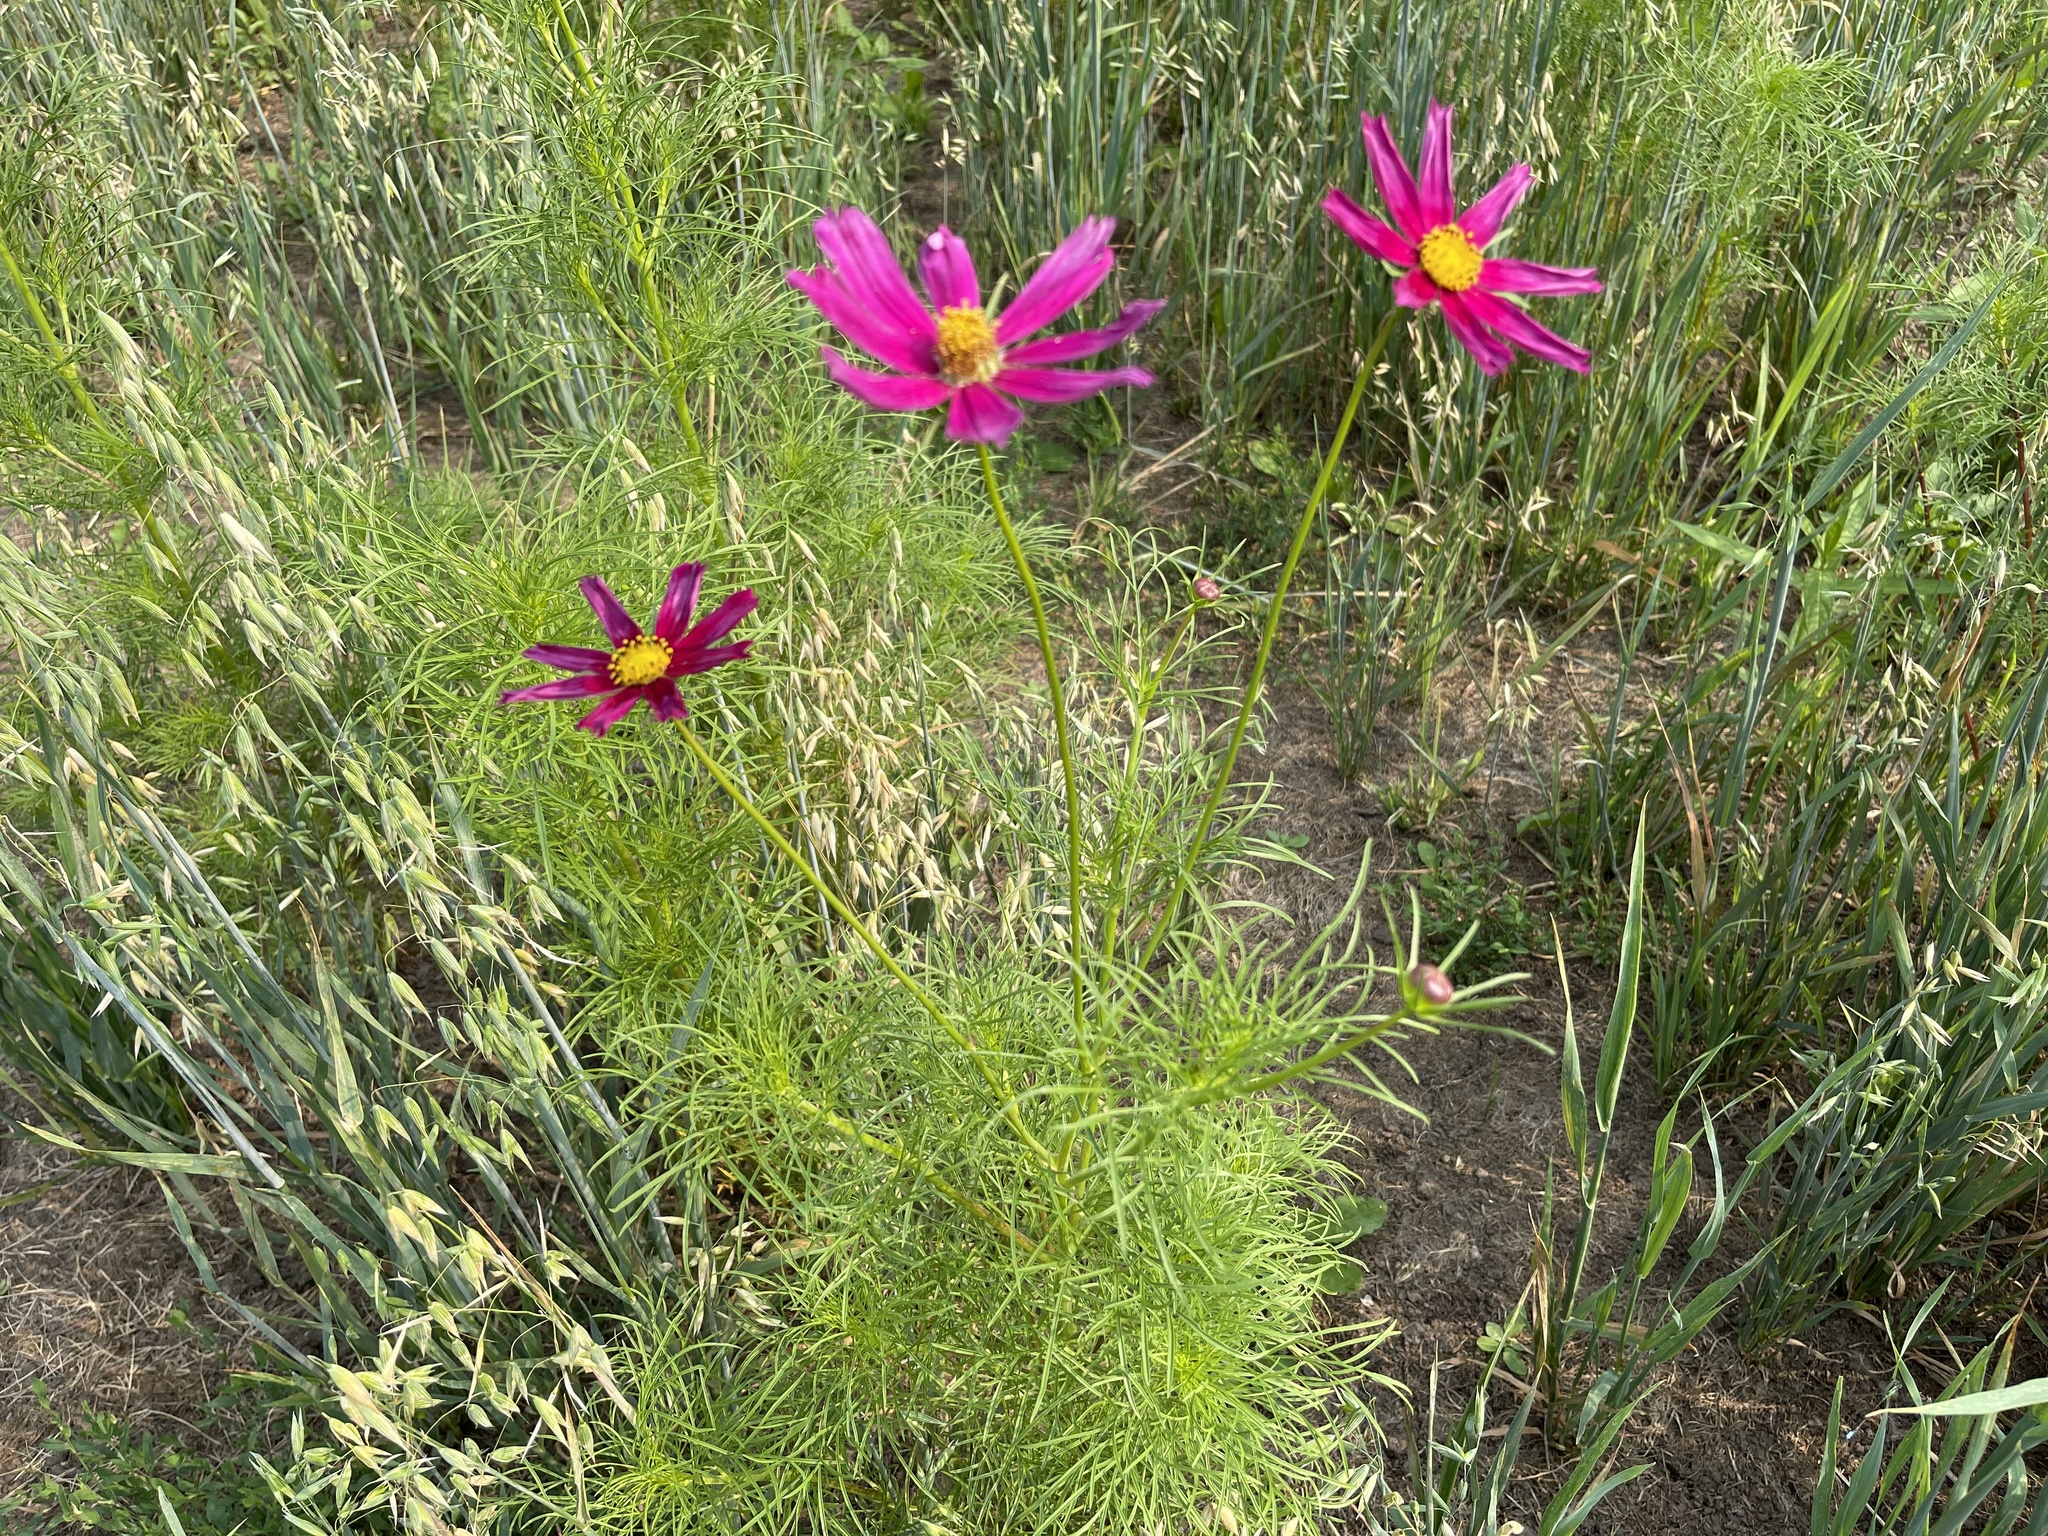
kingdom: Plantae
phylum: Tracheophyta
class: Magnoliopsida
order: Asterales
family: Asteraceae
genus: Cosmos
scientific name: Cosmos bipinnatus
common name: Garden cosmos
